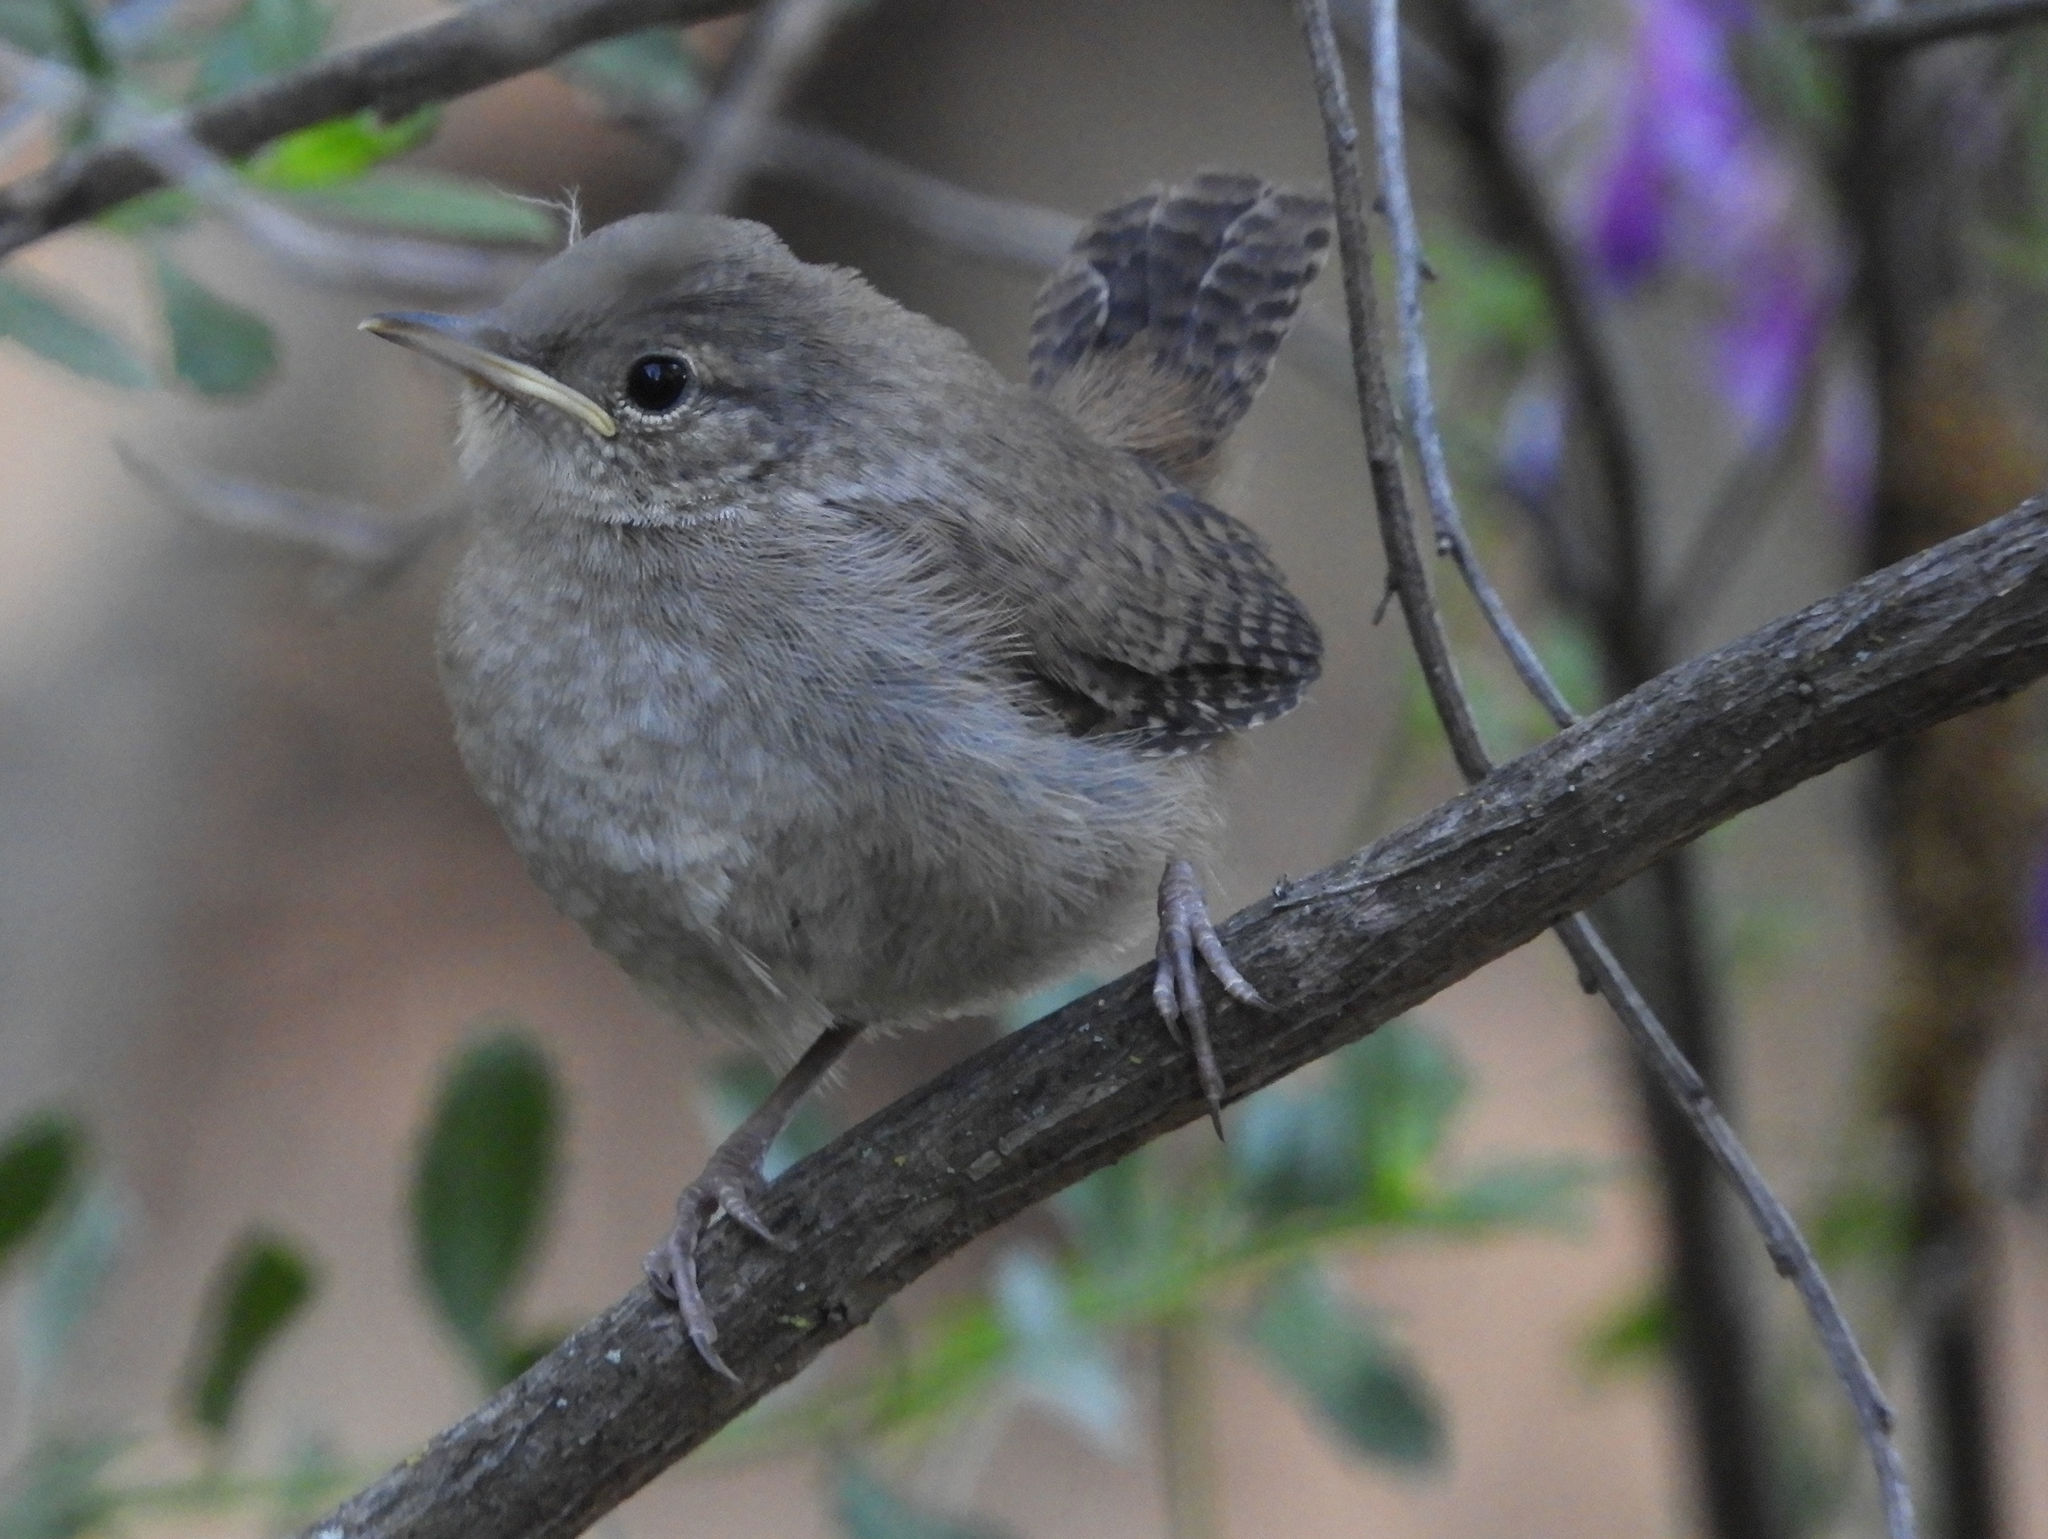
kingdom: Animalia
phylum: Chordata
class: Aves
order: Passeriformes
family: Troglodytidae
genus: Troglodytes
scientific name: Troglodytes aedon
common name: House wren
